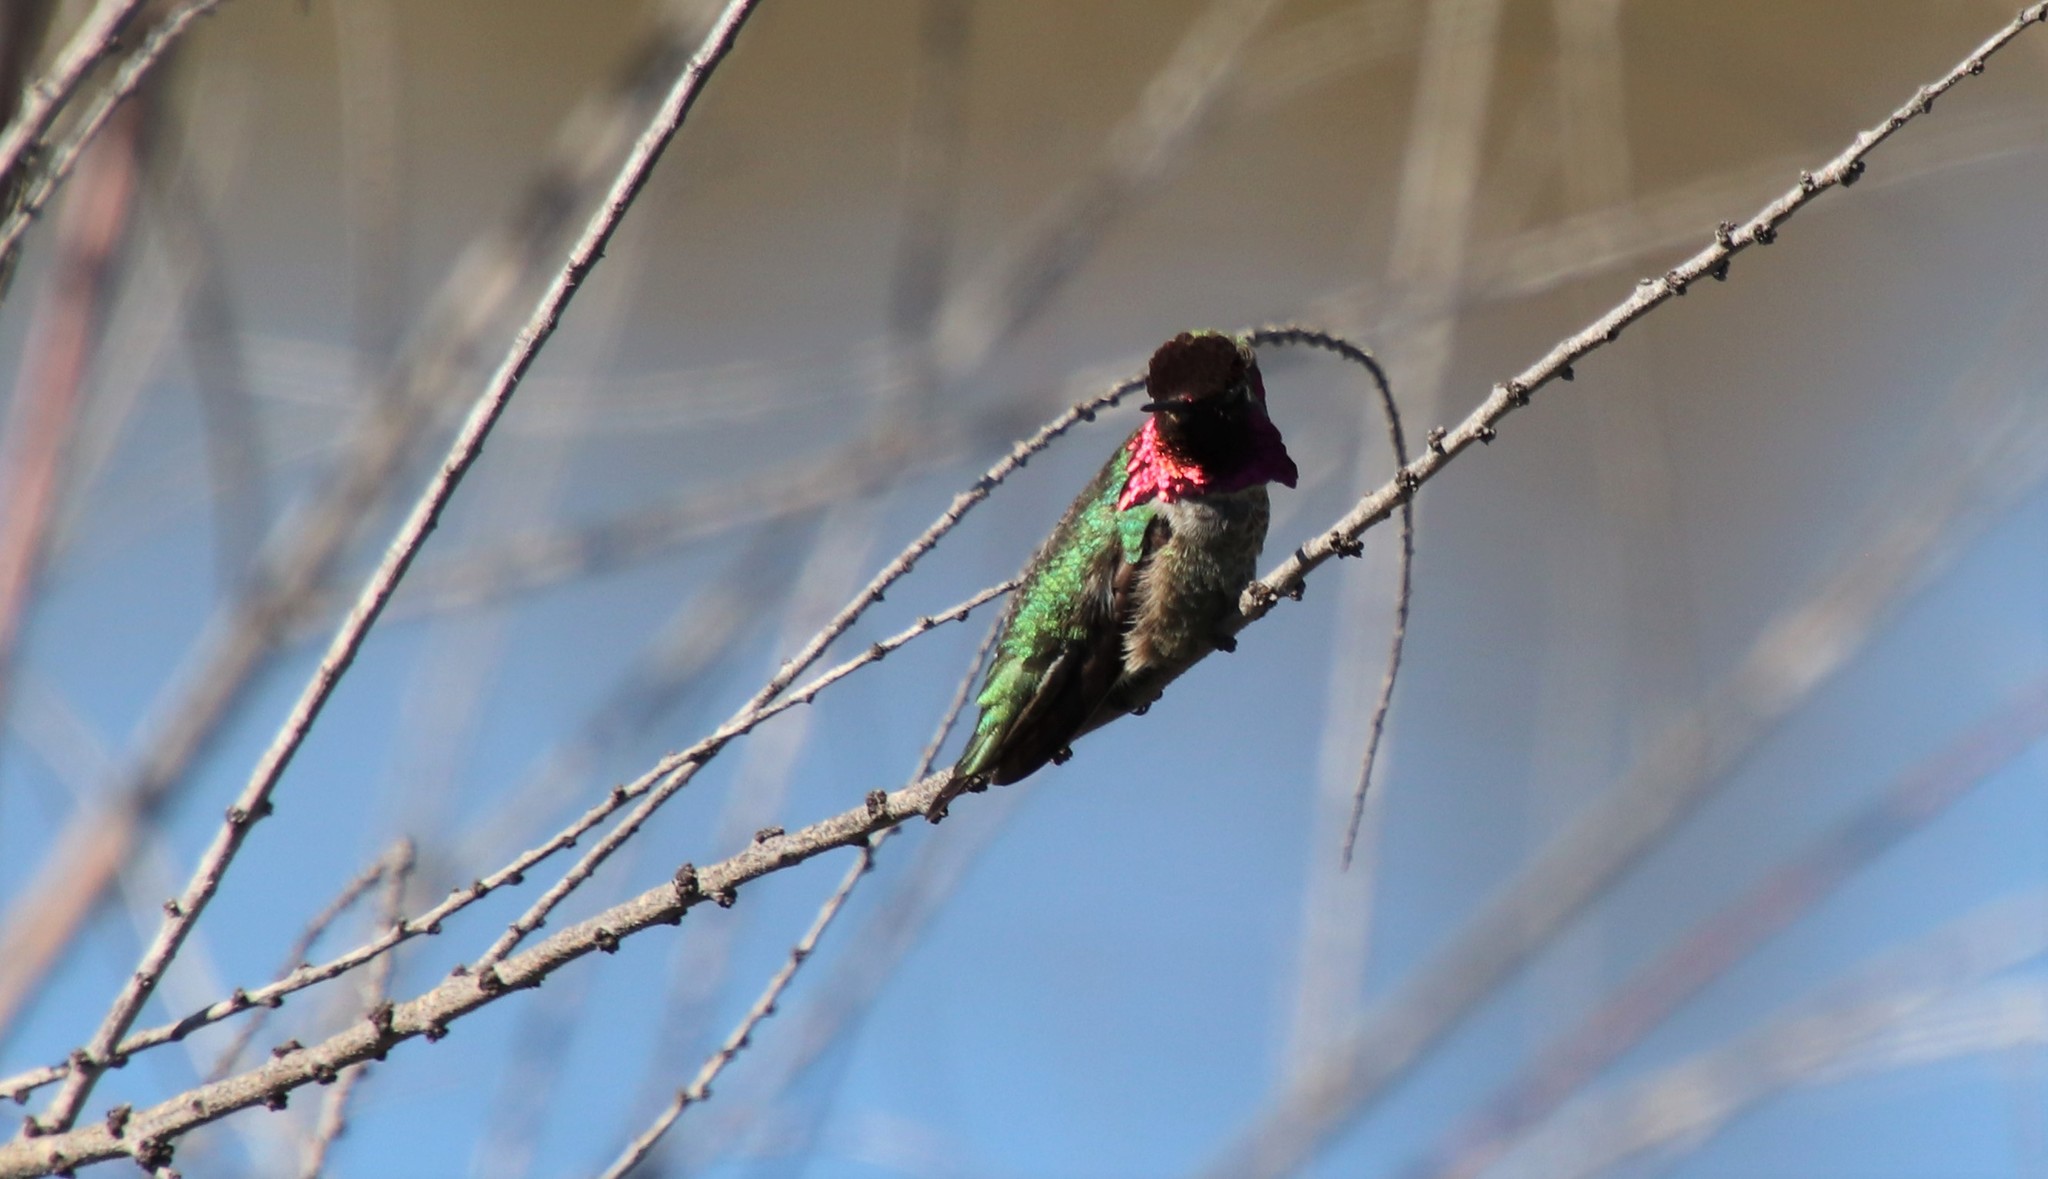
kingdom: Animalia
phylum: Chordata
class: Aves
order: Apodiformes
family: Trochilidae
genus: Calypte
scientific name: Calypte anna
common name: Anna's hummingbird
